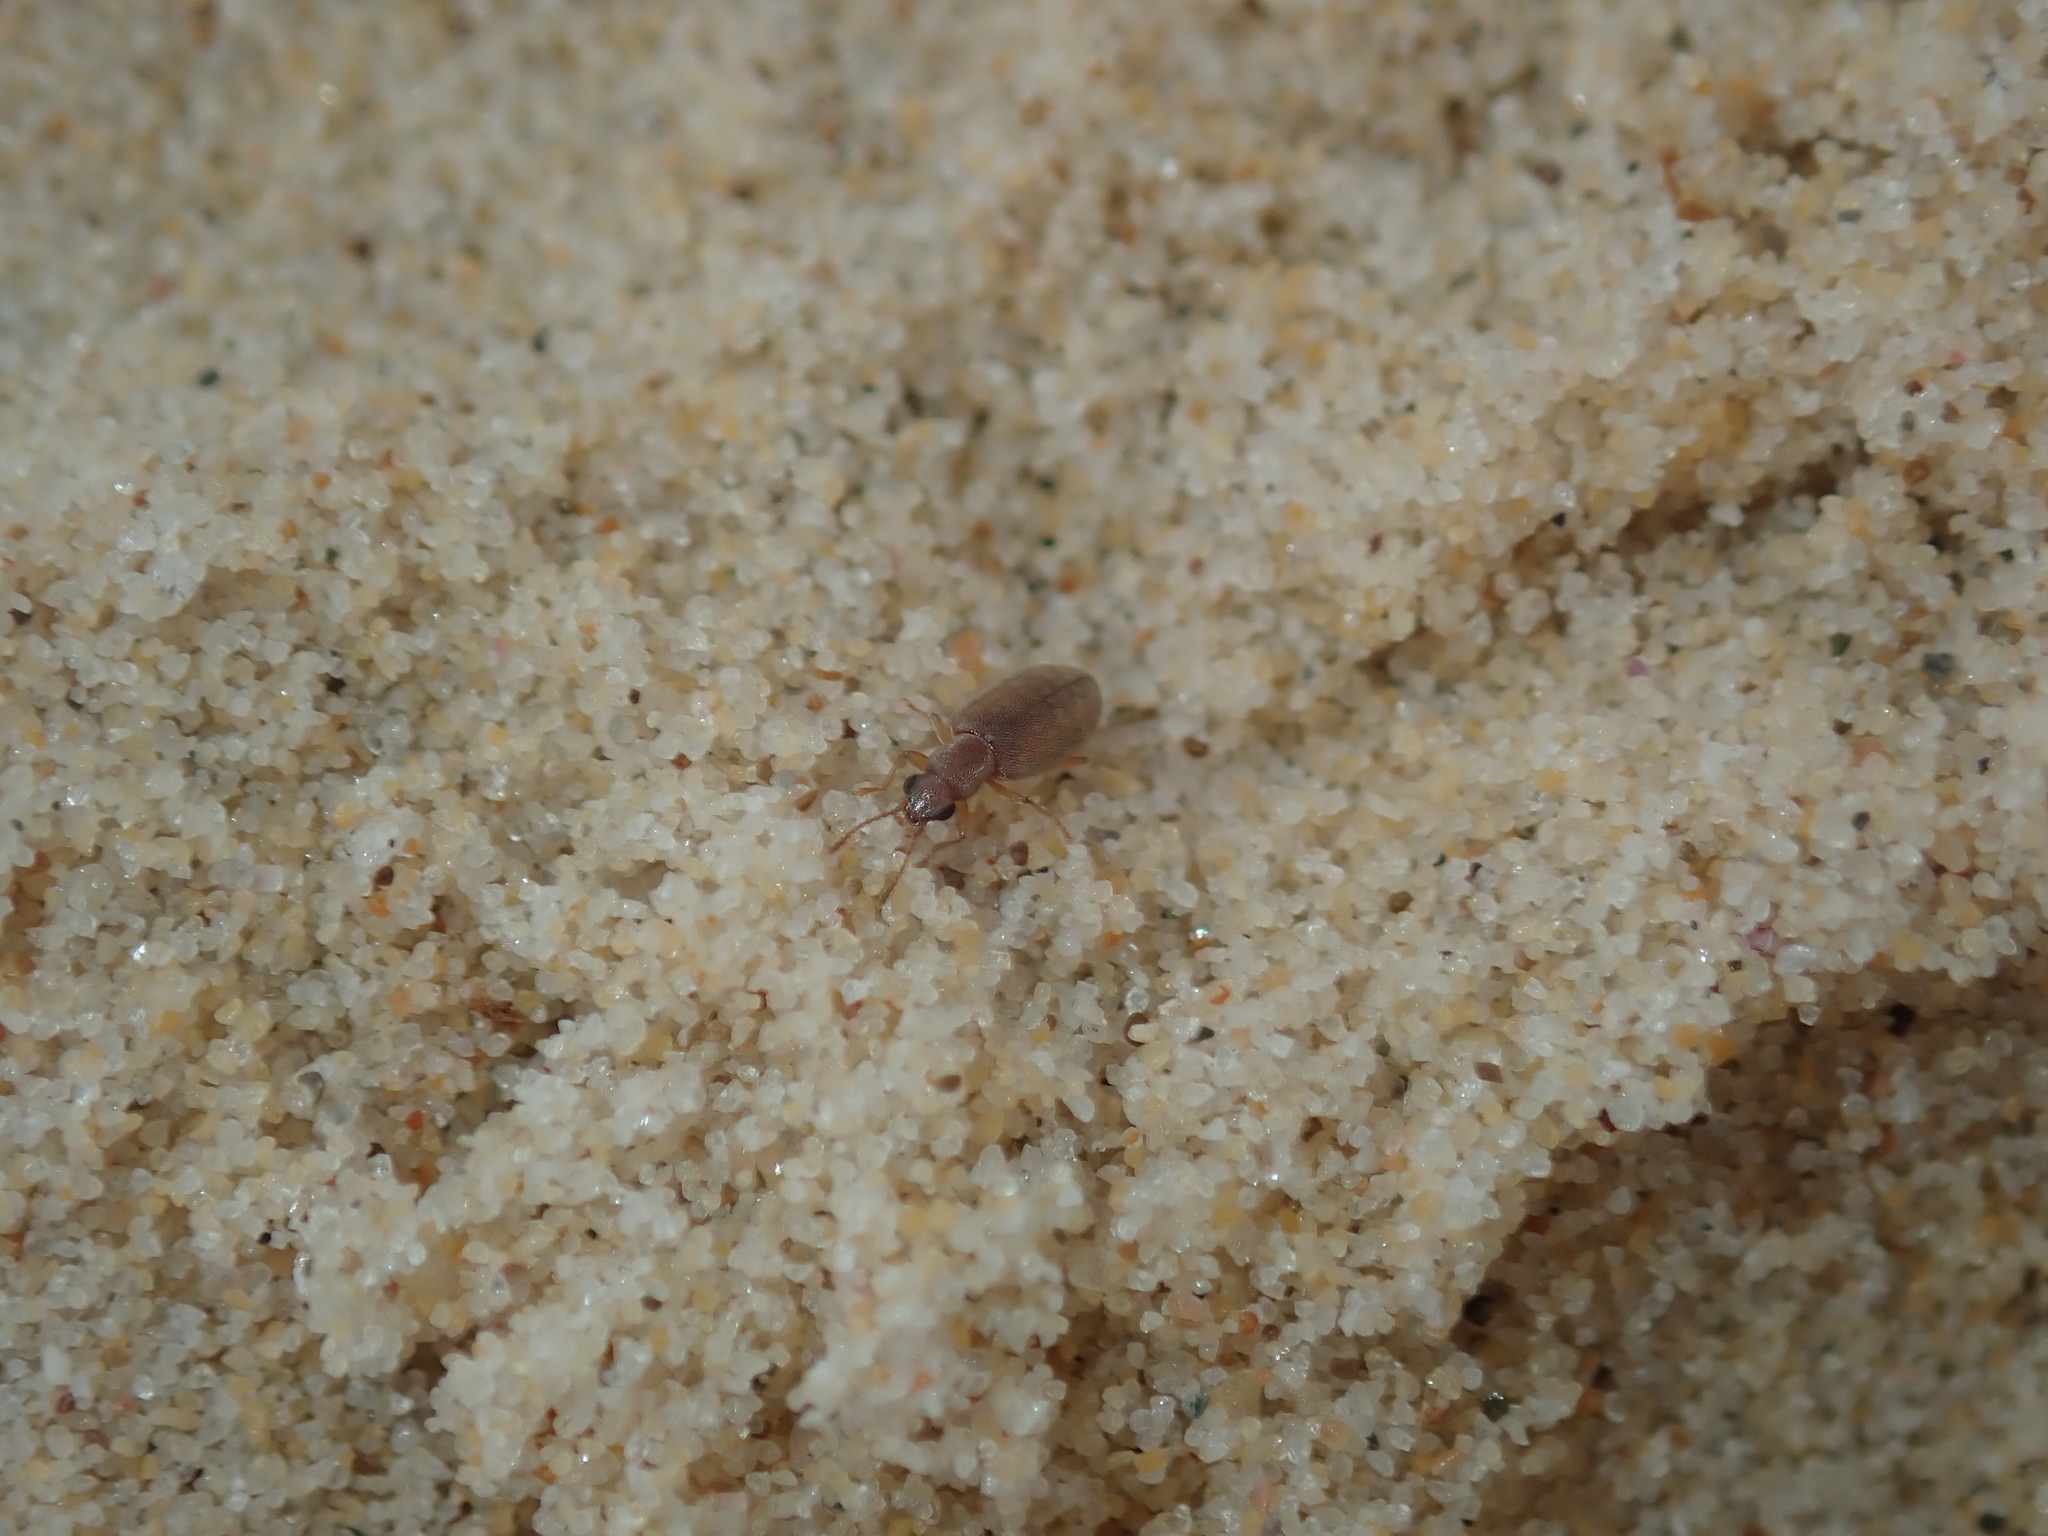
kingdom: Animalia
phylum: Arthropoda
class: Insecta
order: Coleoptera
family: Anthicidae
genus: Lagrioida
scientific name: Lagrioida
